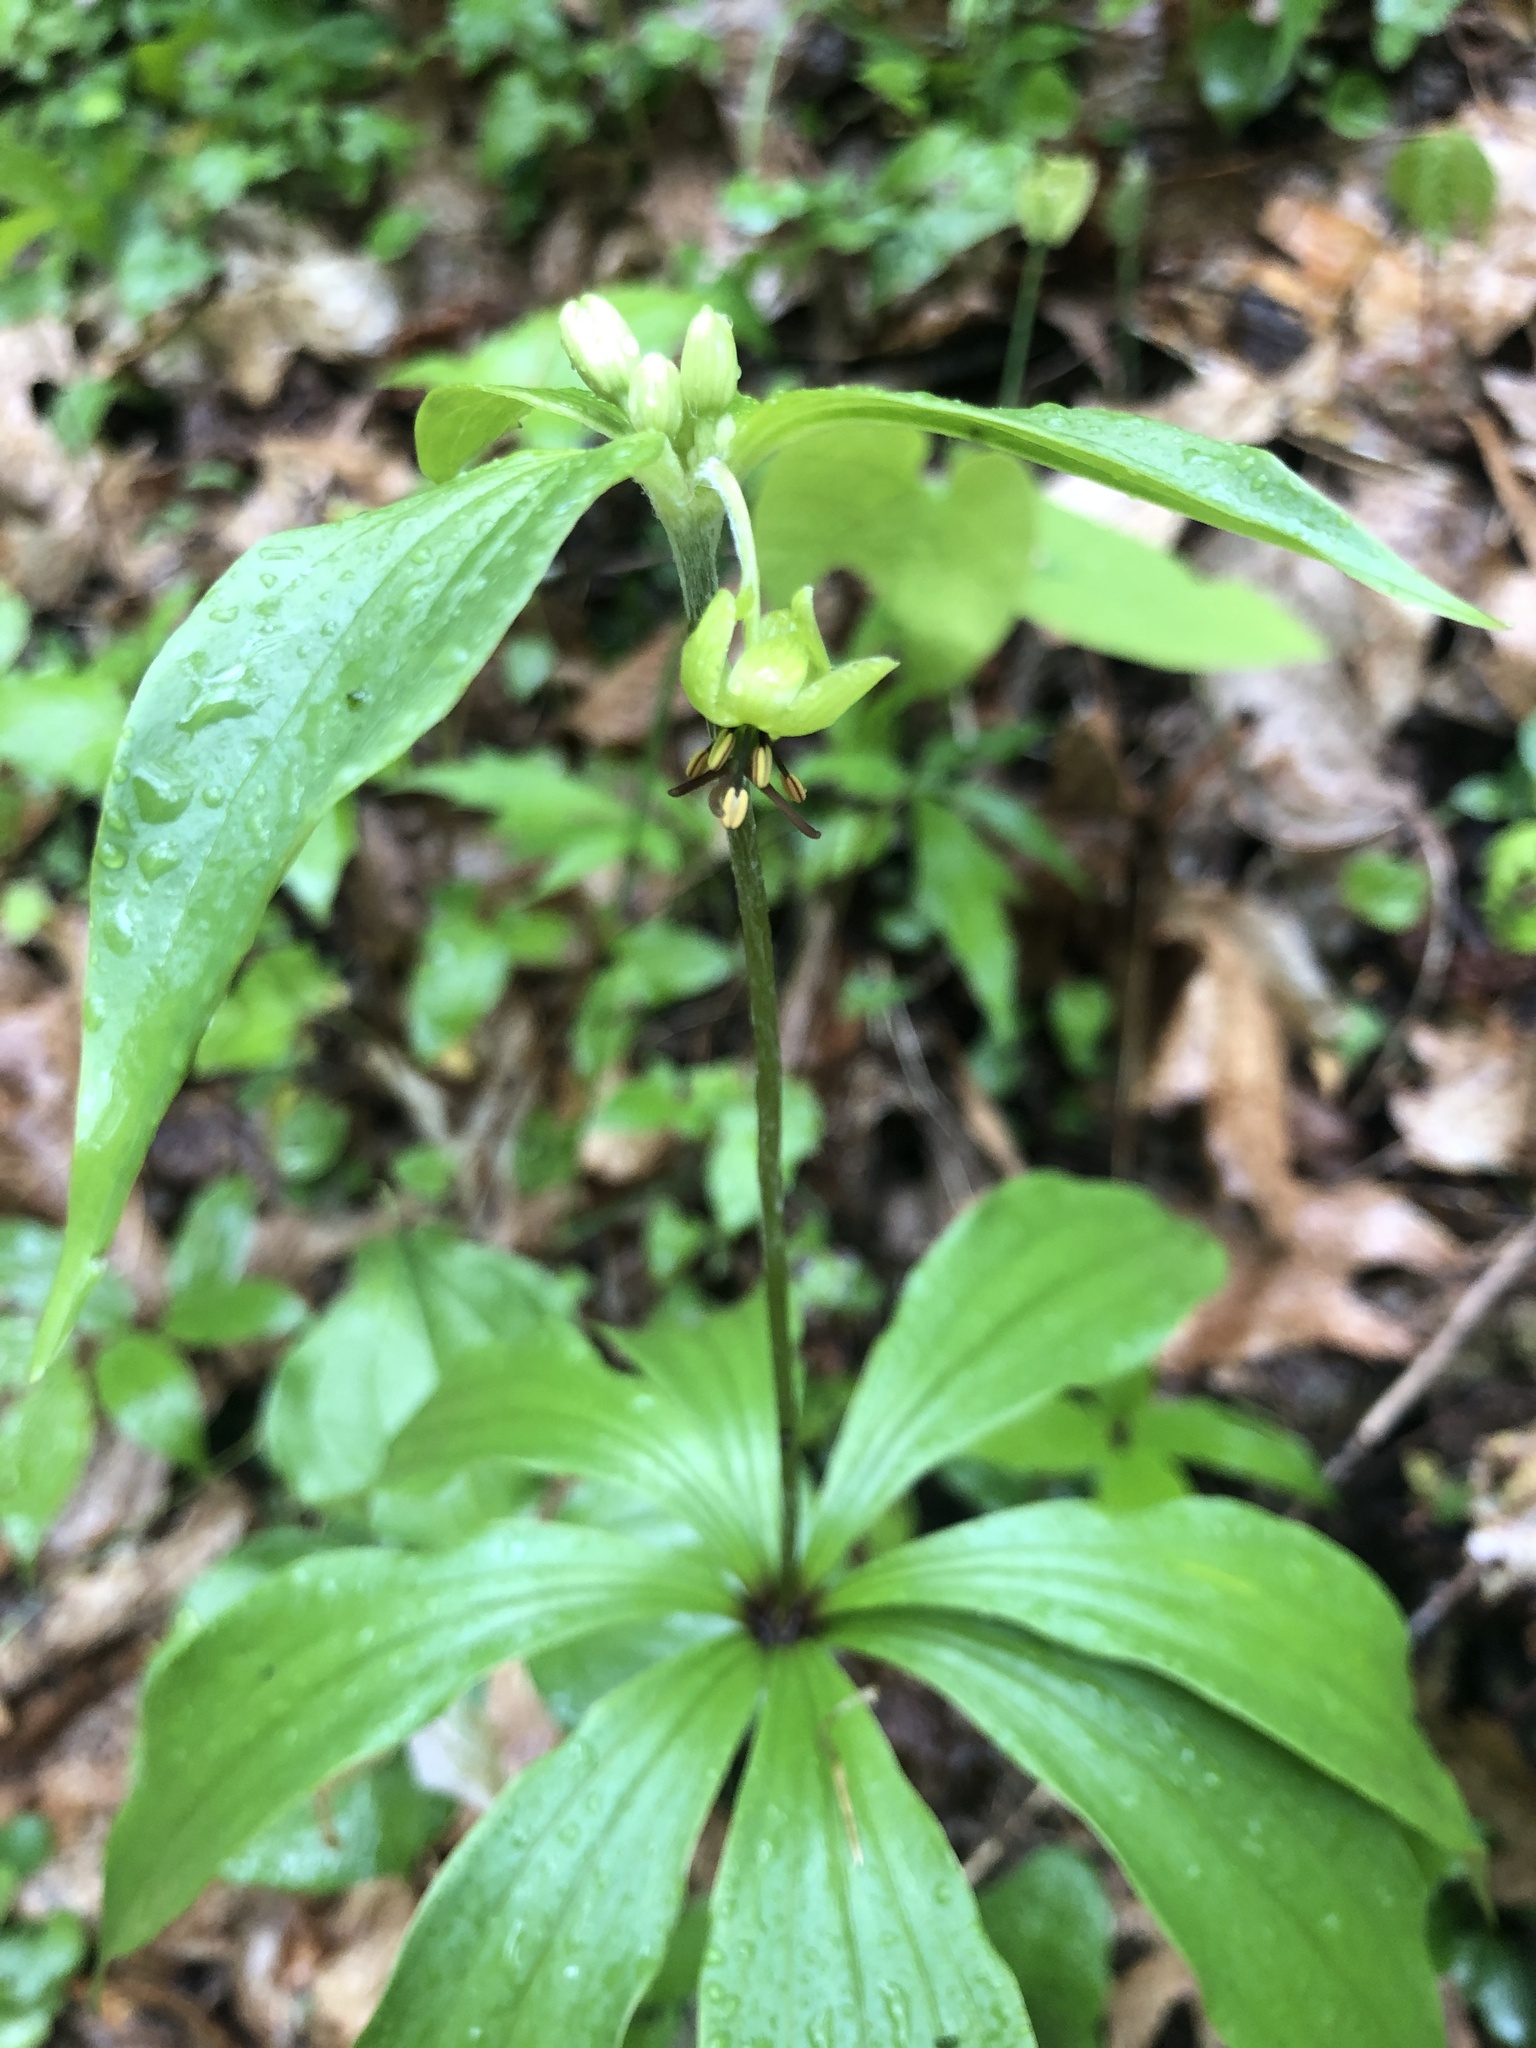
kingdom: Plantae
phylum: Tracheophyta
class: Liliopsida
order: Liliales
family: Liliaceae
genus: Medeola
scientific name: Medeola virginiana
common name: Indian cucumber-root
